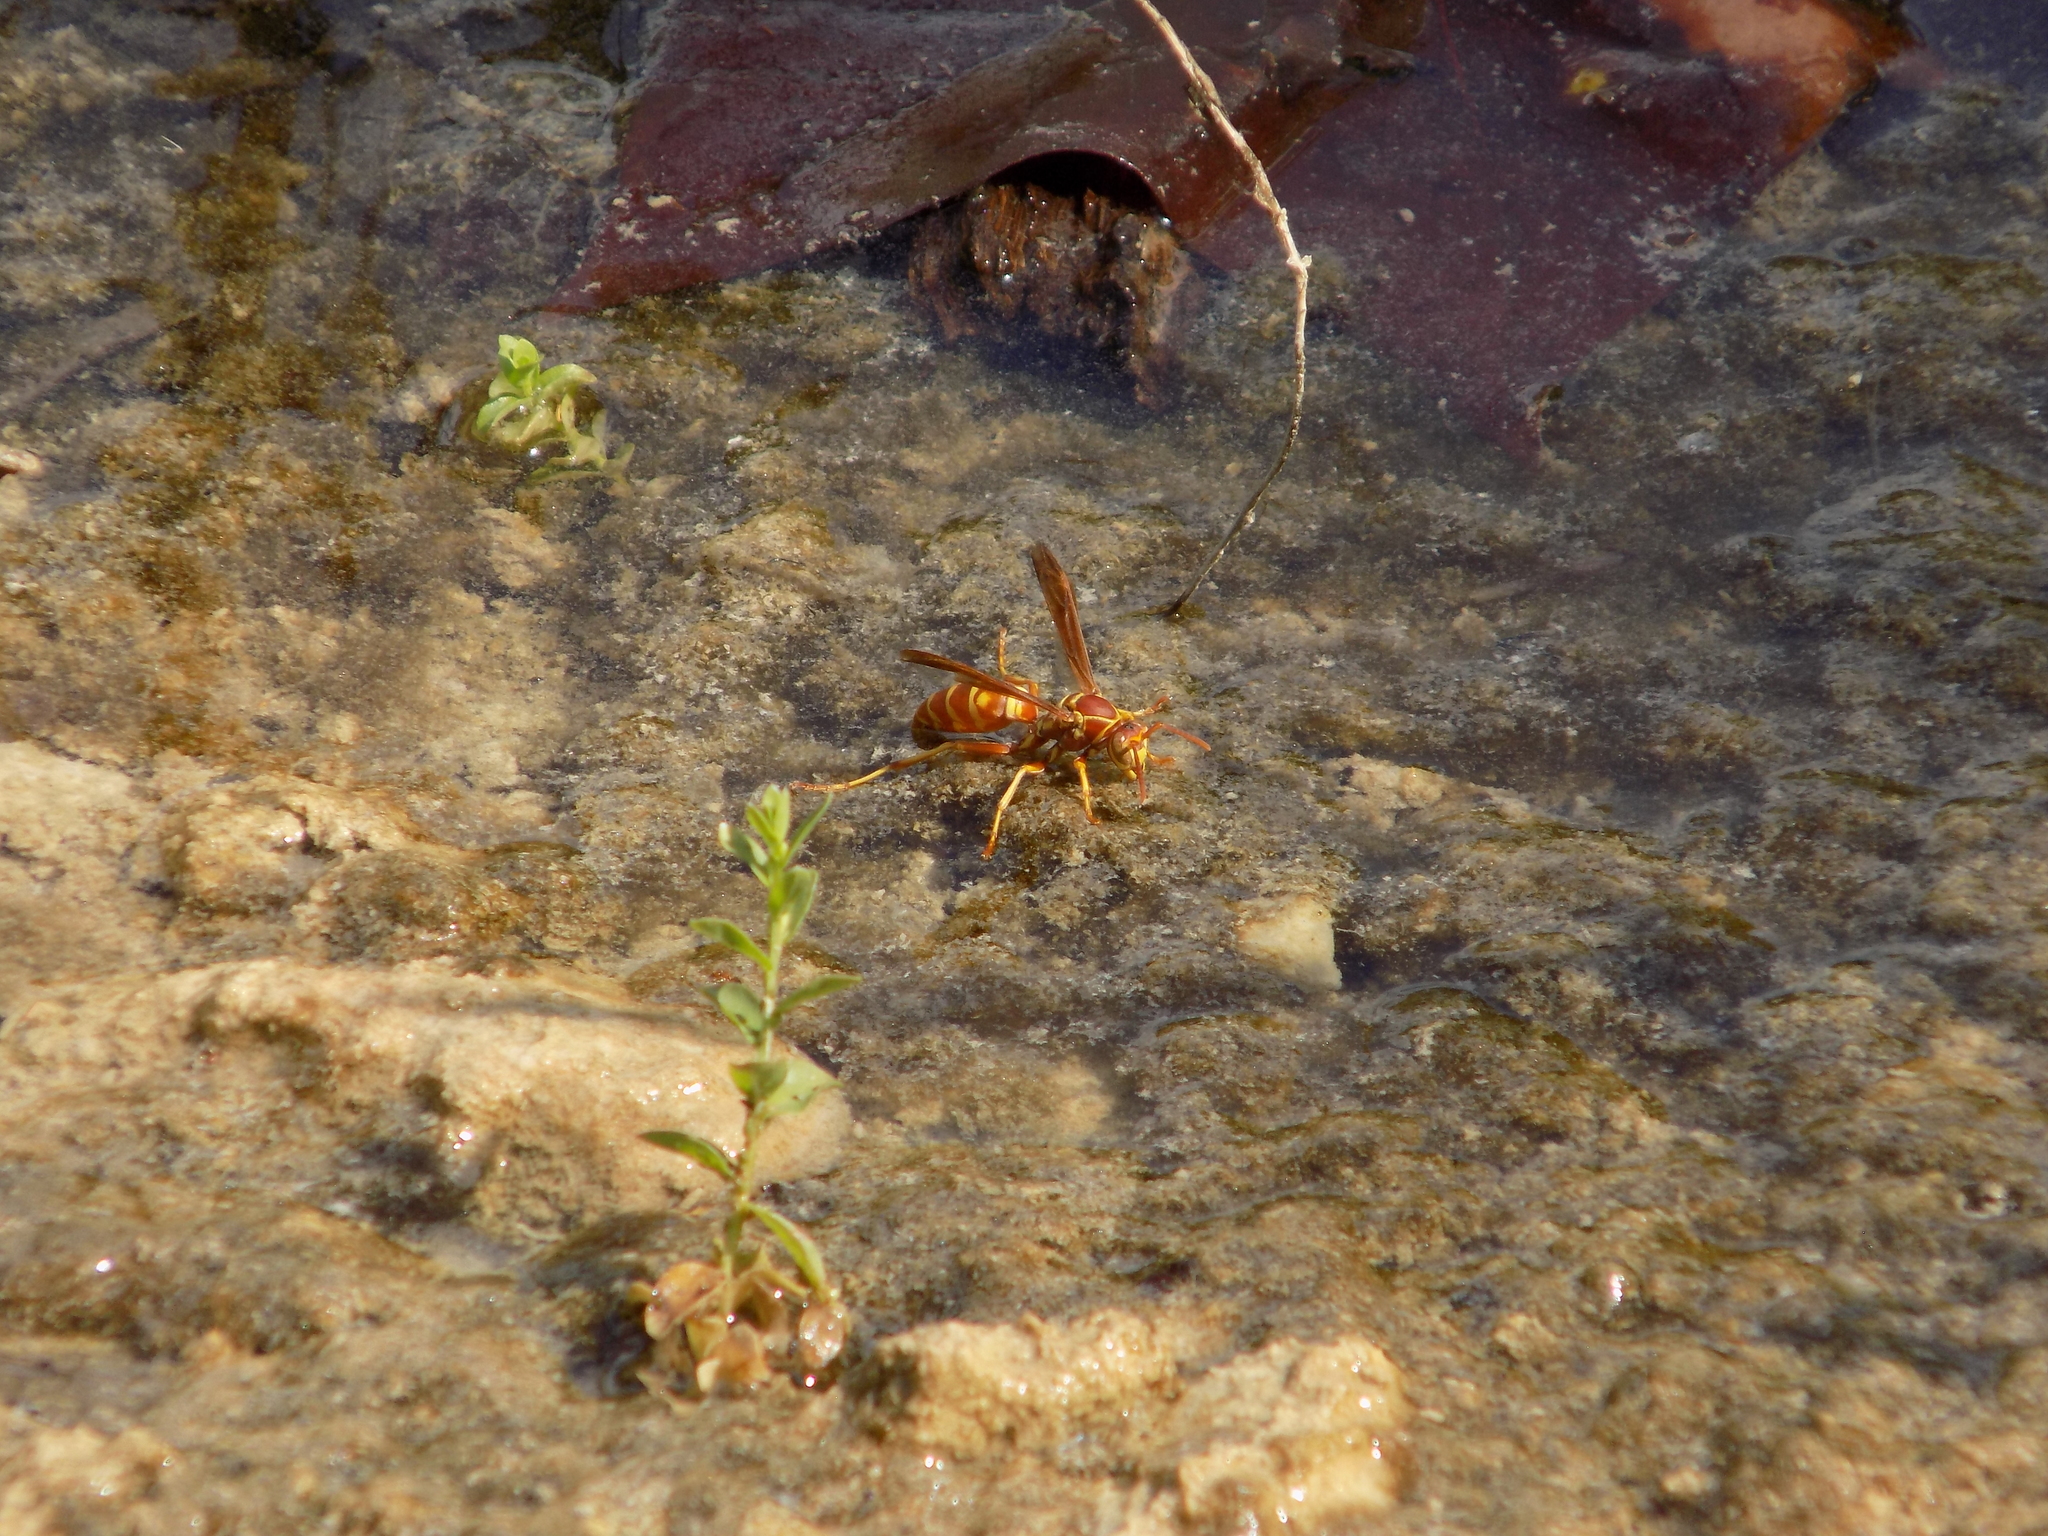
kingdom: Animalia
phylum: Arthropoda
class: Insecta
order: Hymenoptera
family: Eumenidae
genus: Polistes
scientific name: Polistes bellicosus
